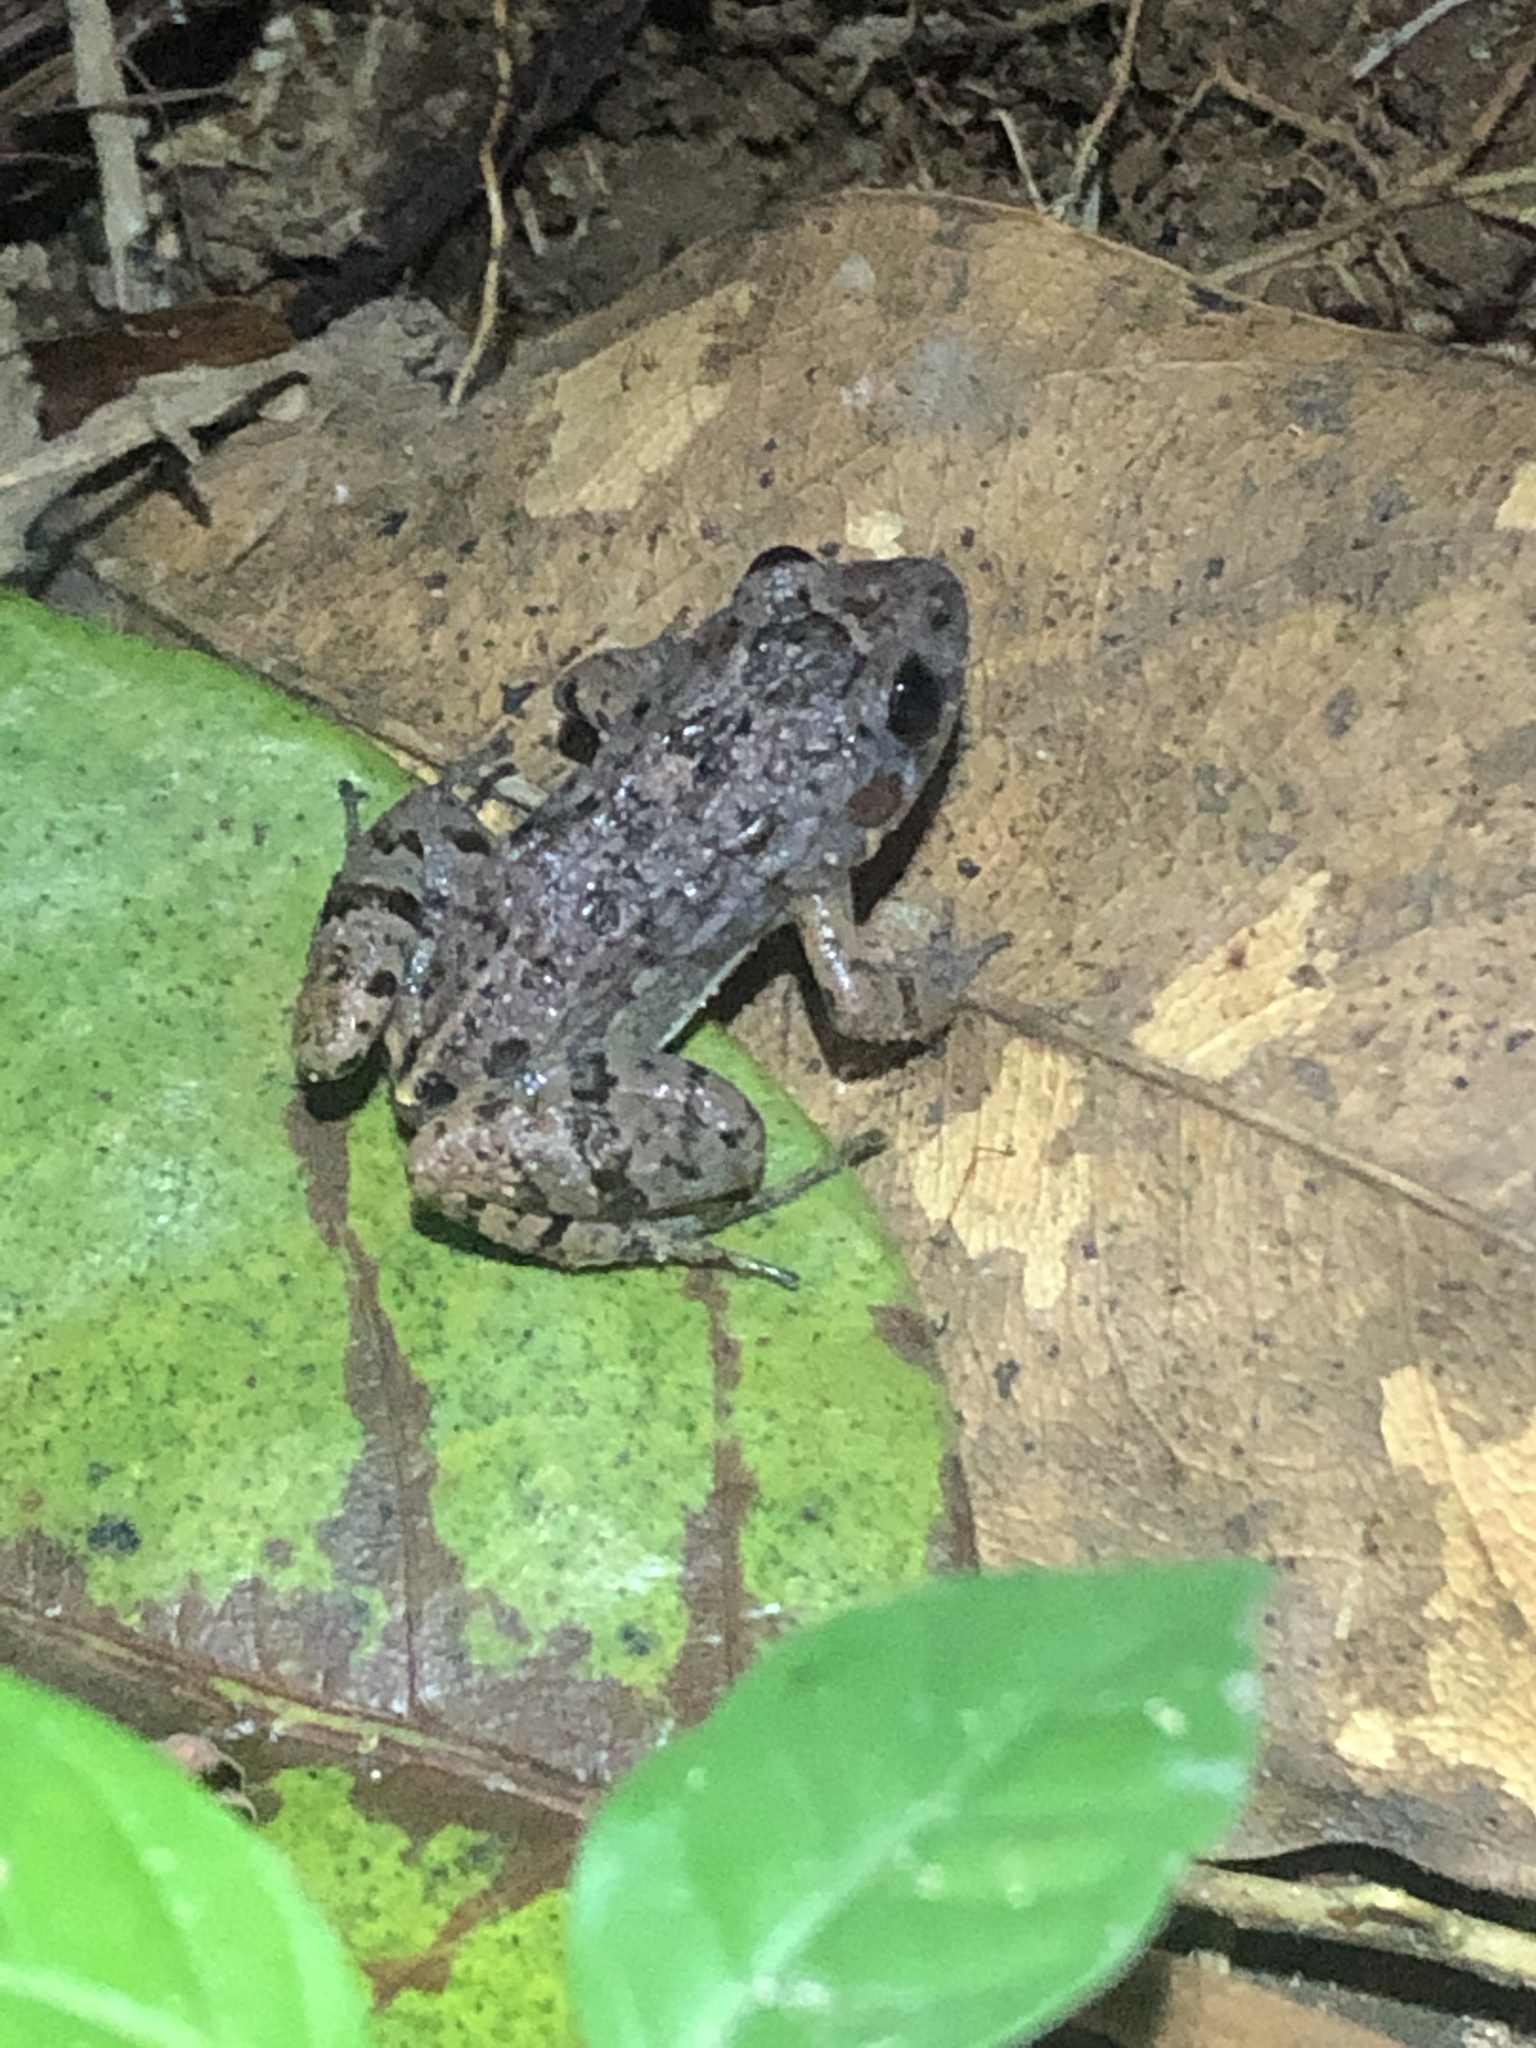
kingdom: Animalia
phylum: Chordata
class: Amphibia
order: Anura
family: Leptodactylidae
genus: Adenomera
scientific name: Adenomera andreae
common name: Lowland tropical bullfrog
